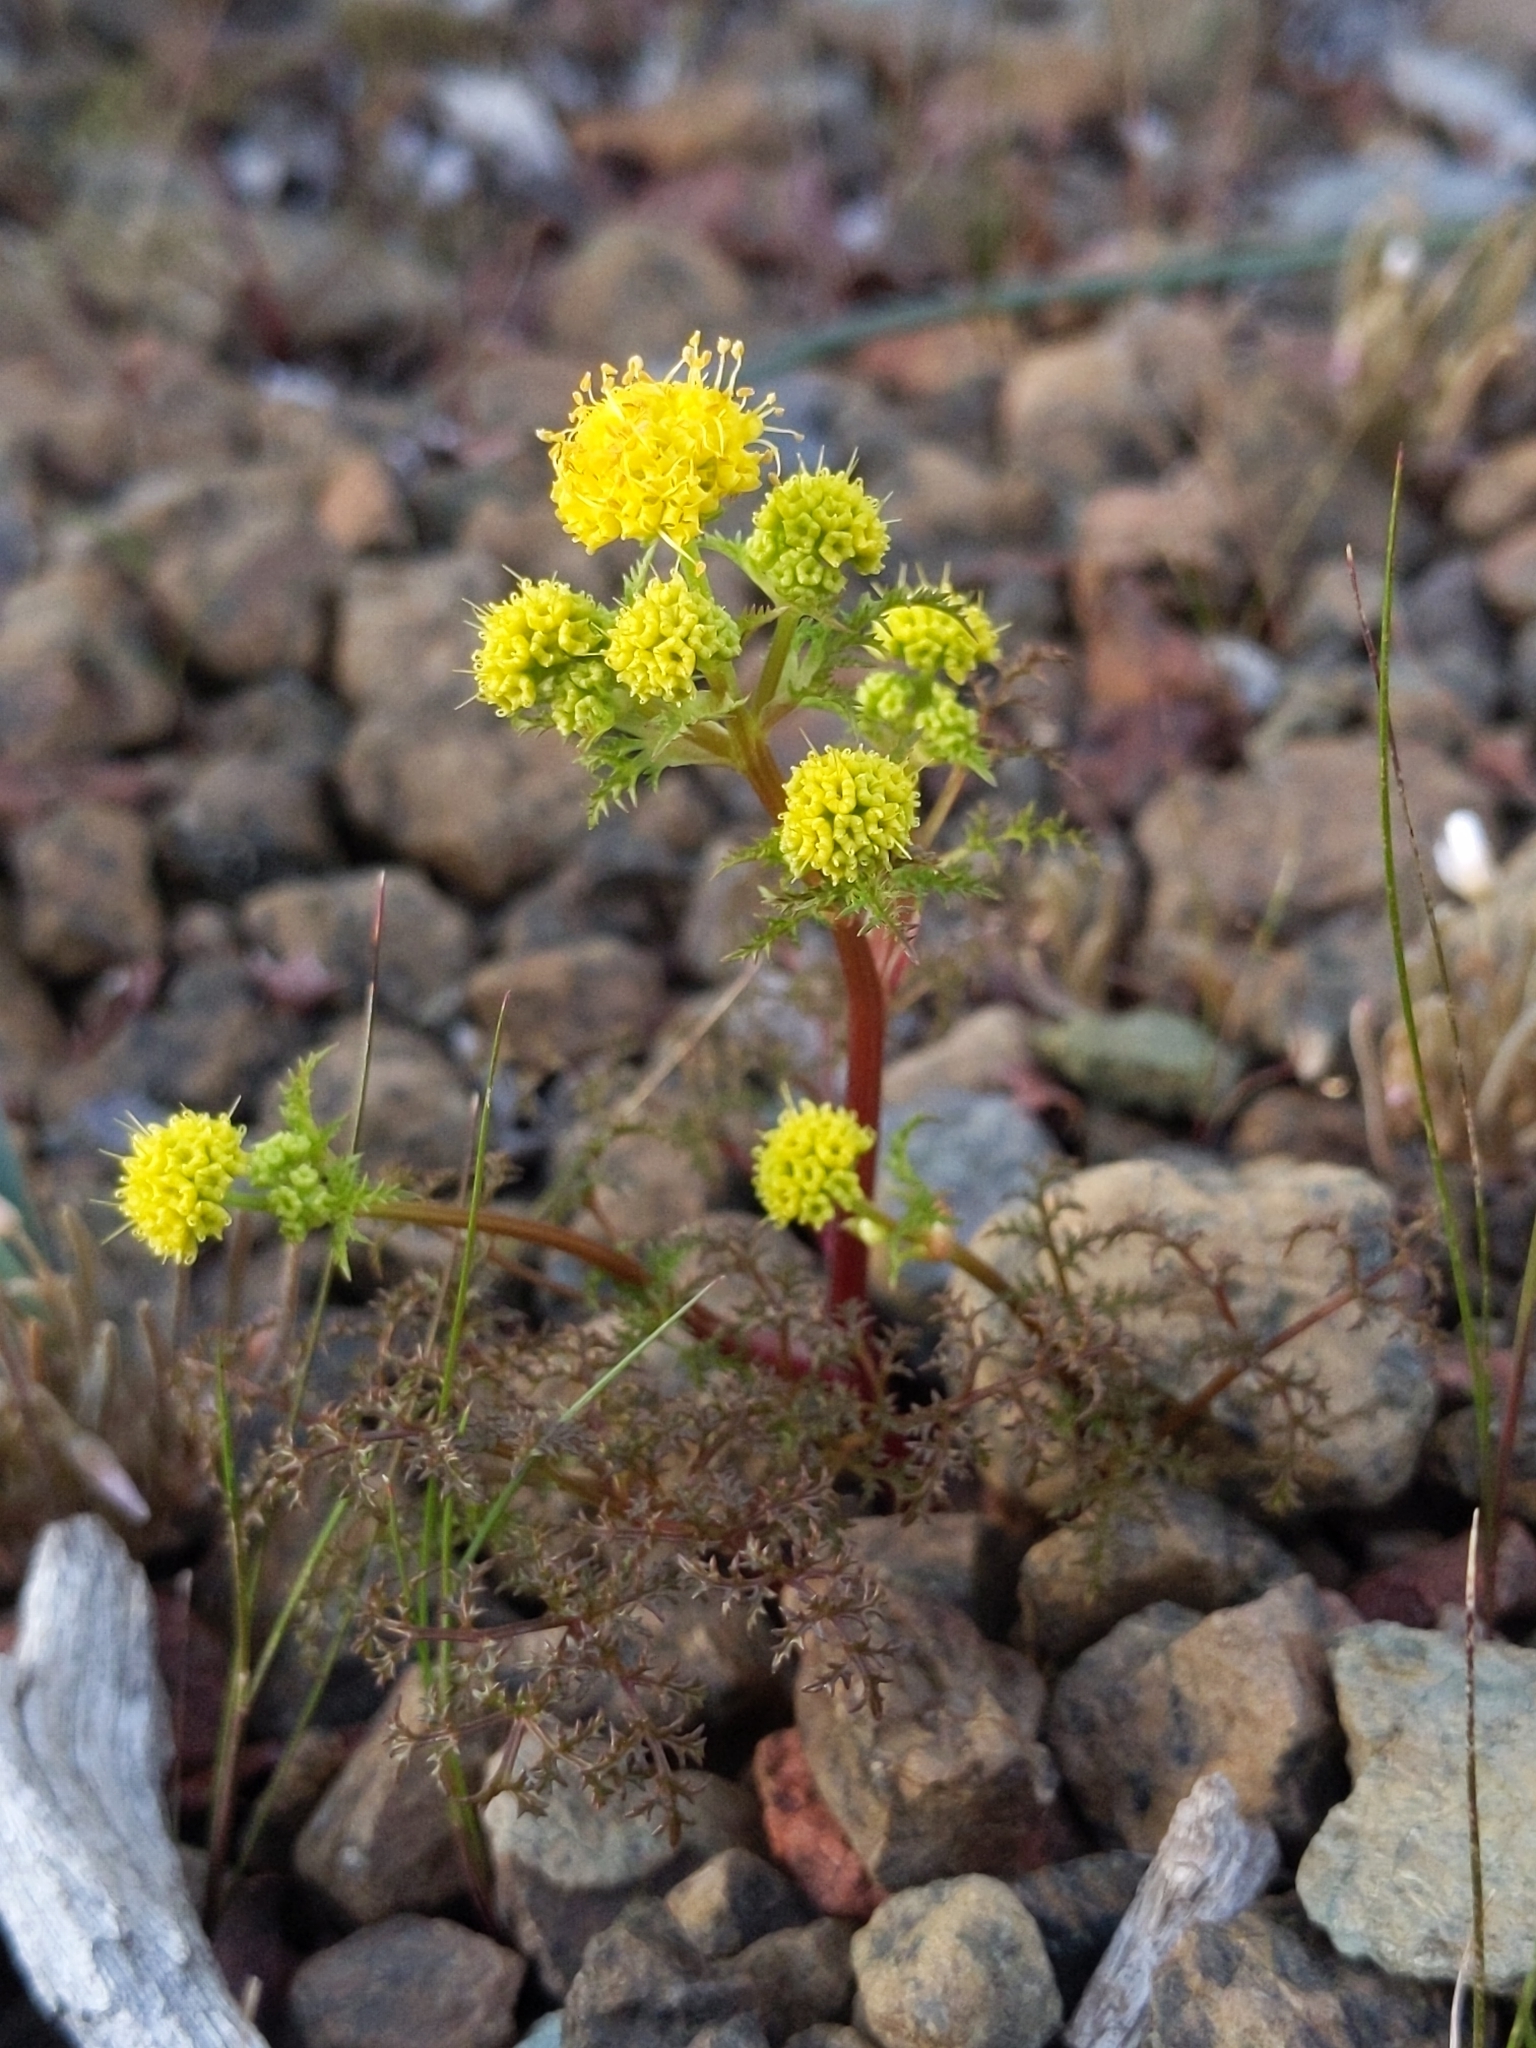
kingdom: Plantae
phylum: Tracheophyta
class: Magnoliopsida
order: Apiales
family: Apiaceae
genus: Sanicula
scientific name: Sanicula tuberosa
